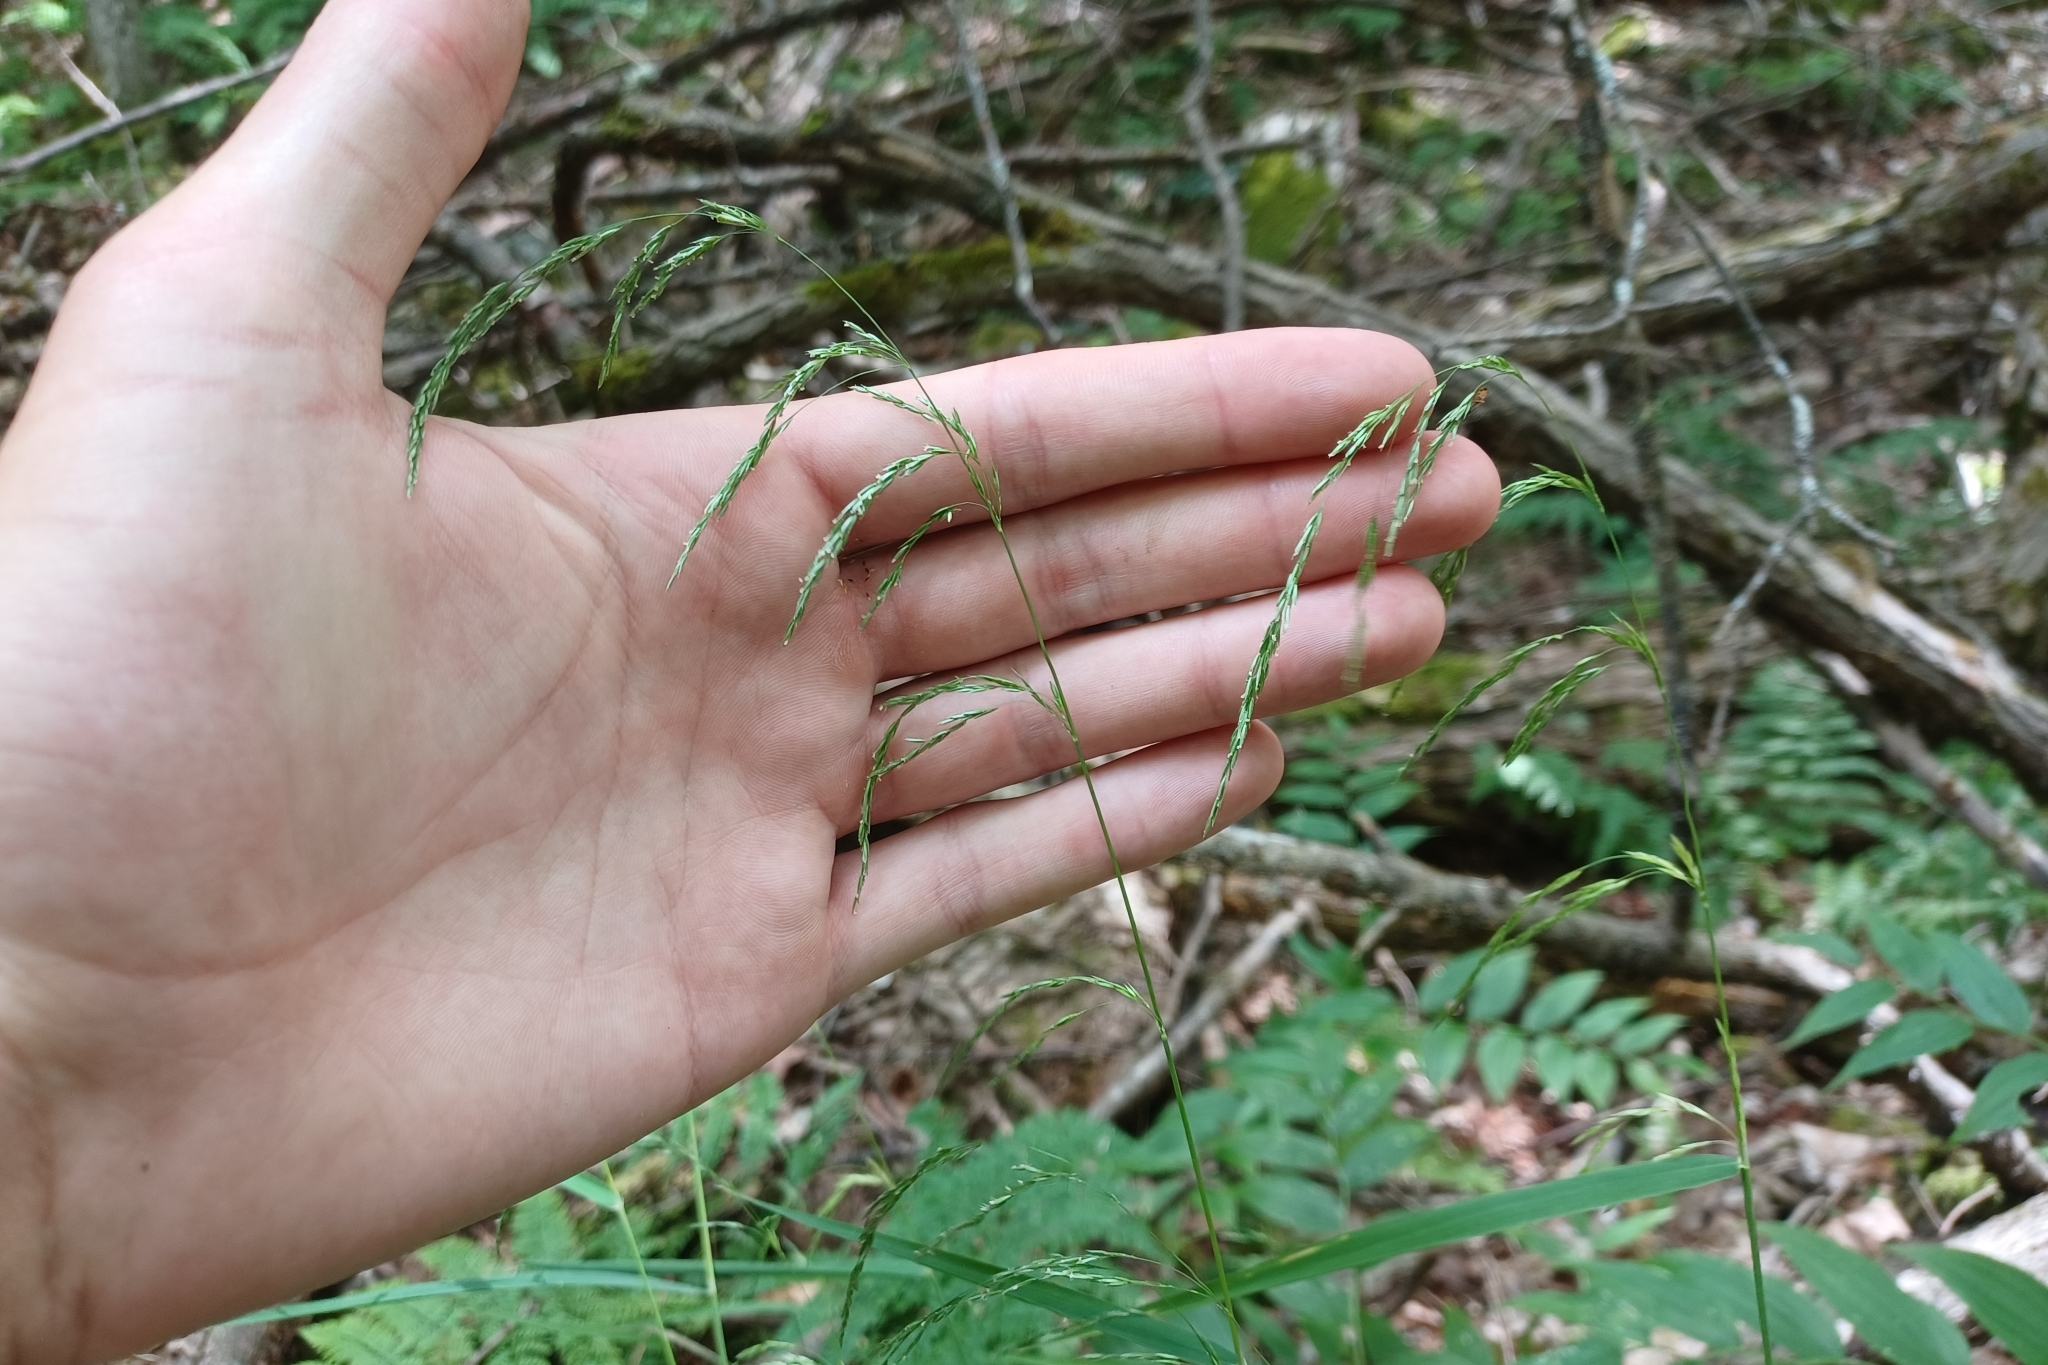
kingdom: Plantae
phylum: Tracheophyta
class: Liliopsida
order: Poales
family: Poaceae
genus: Cinna
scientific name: Cinna latifolia
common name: Drooping woodreed
